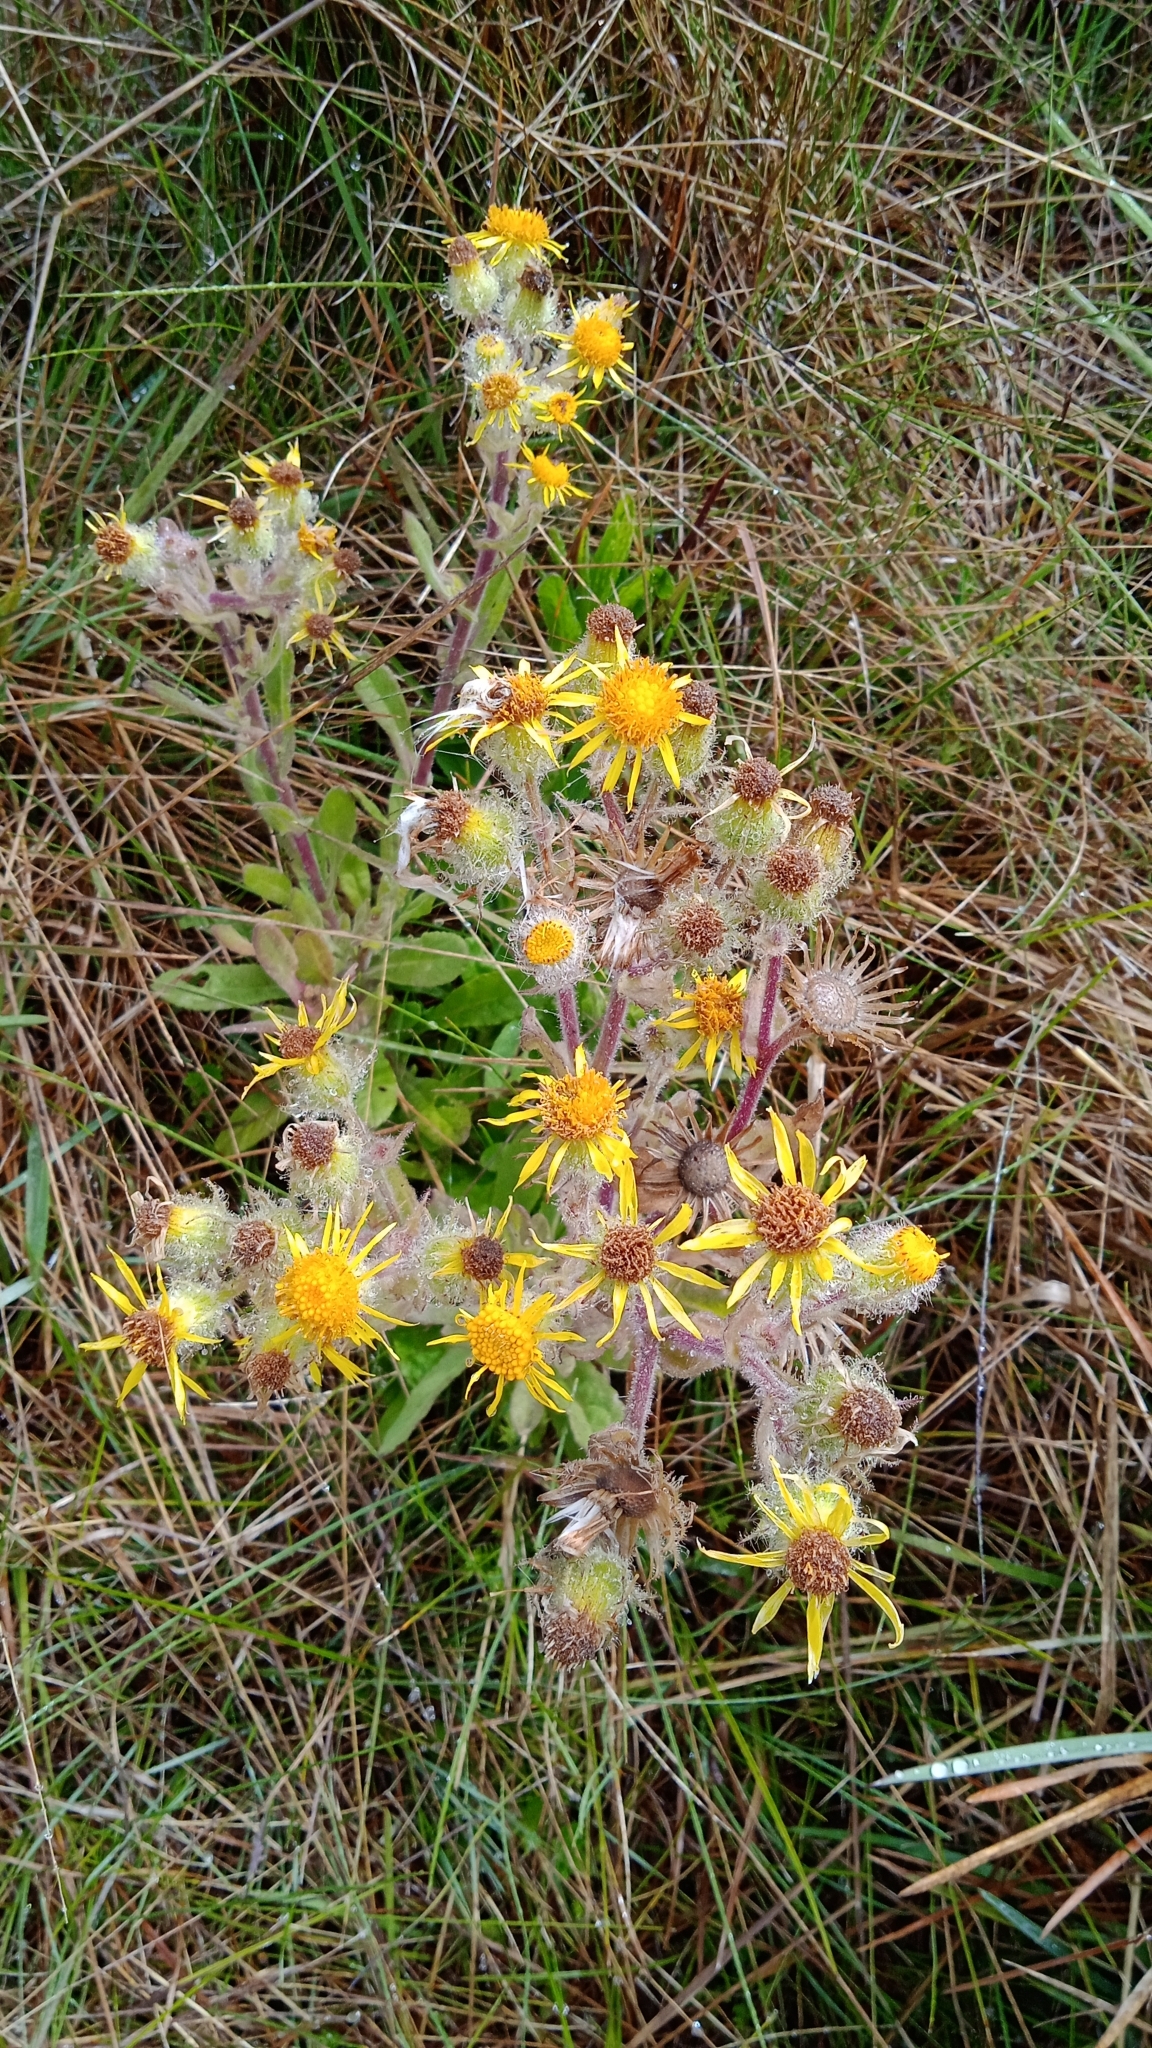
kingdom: Plantae
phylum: Tracheophyta
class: Magnoliopsida
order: Asterales
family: Asteraceae
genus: Senecio
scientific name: Senecio conyzifolius
